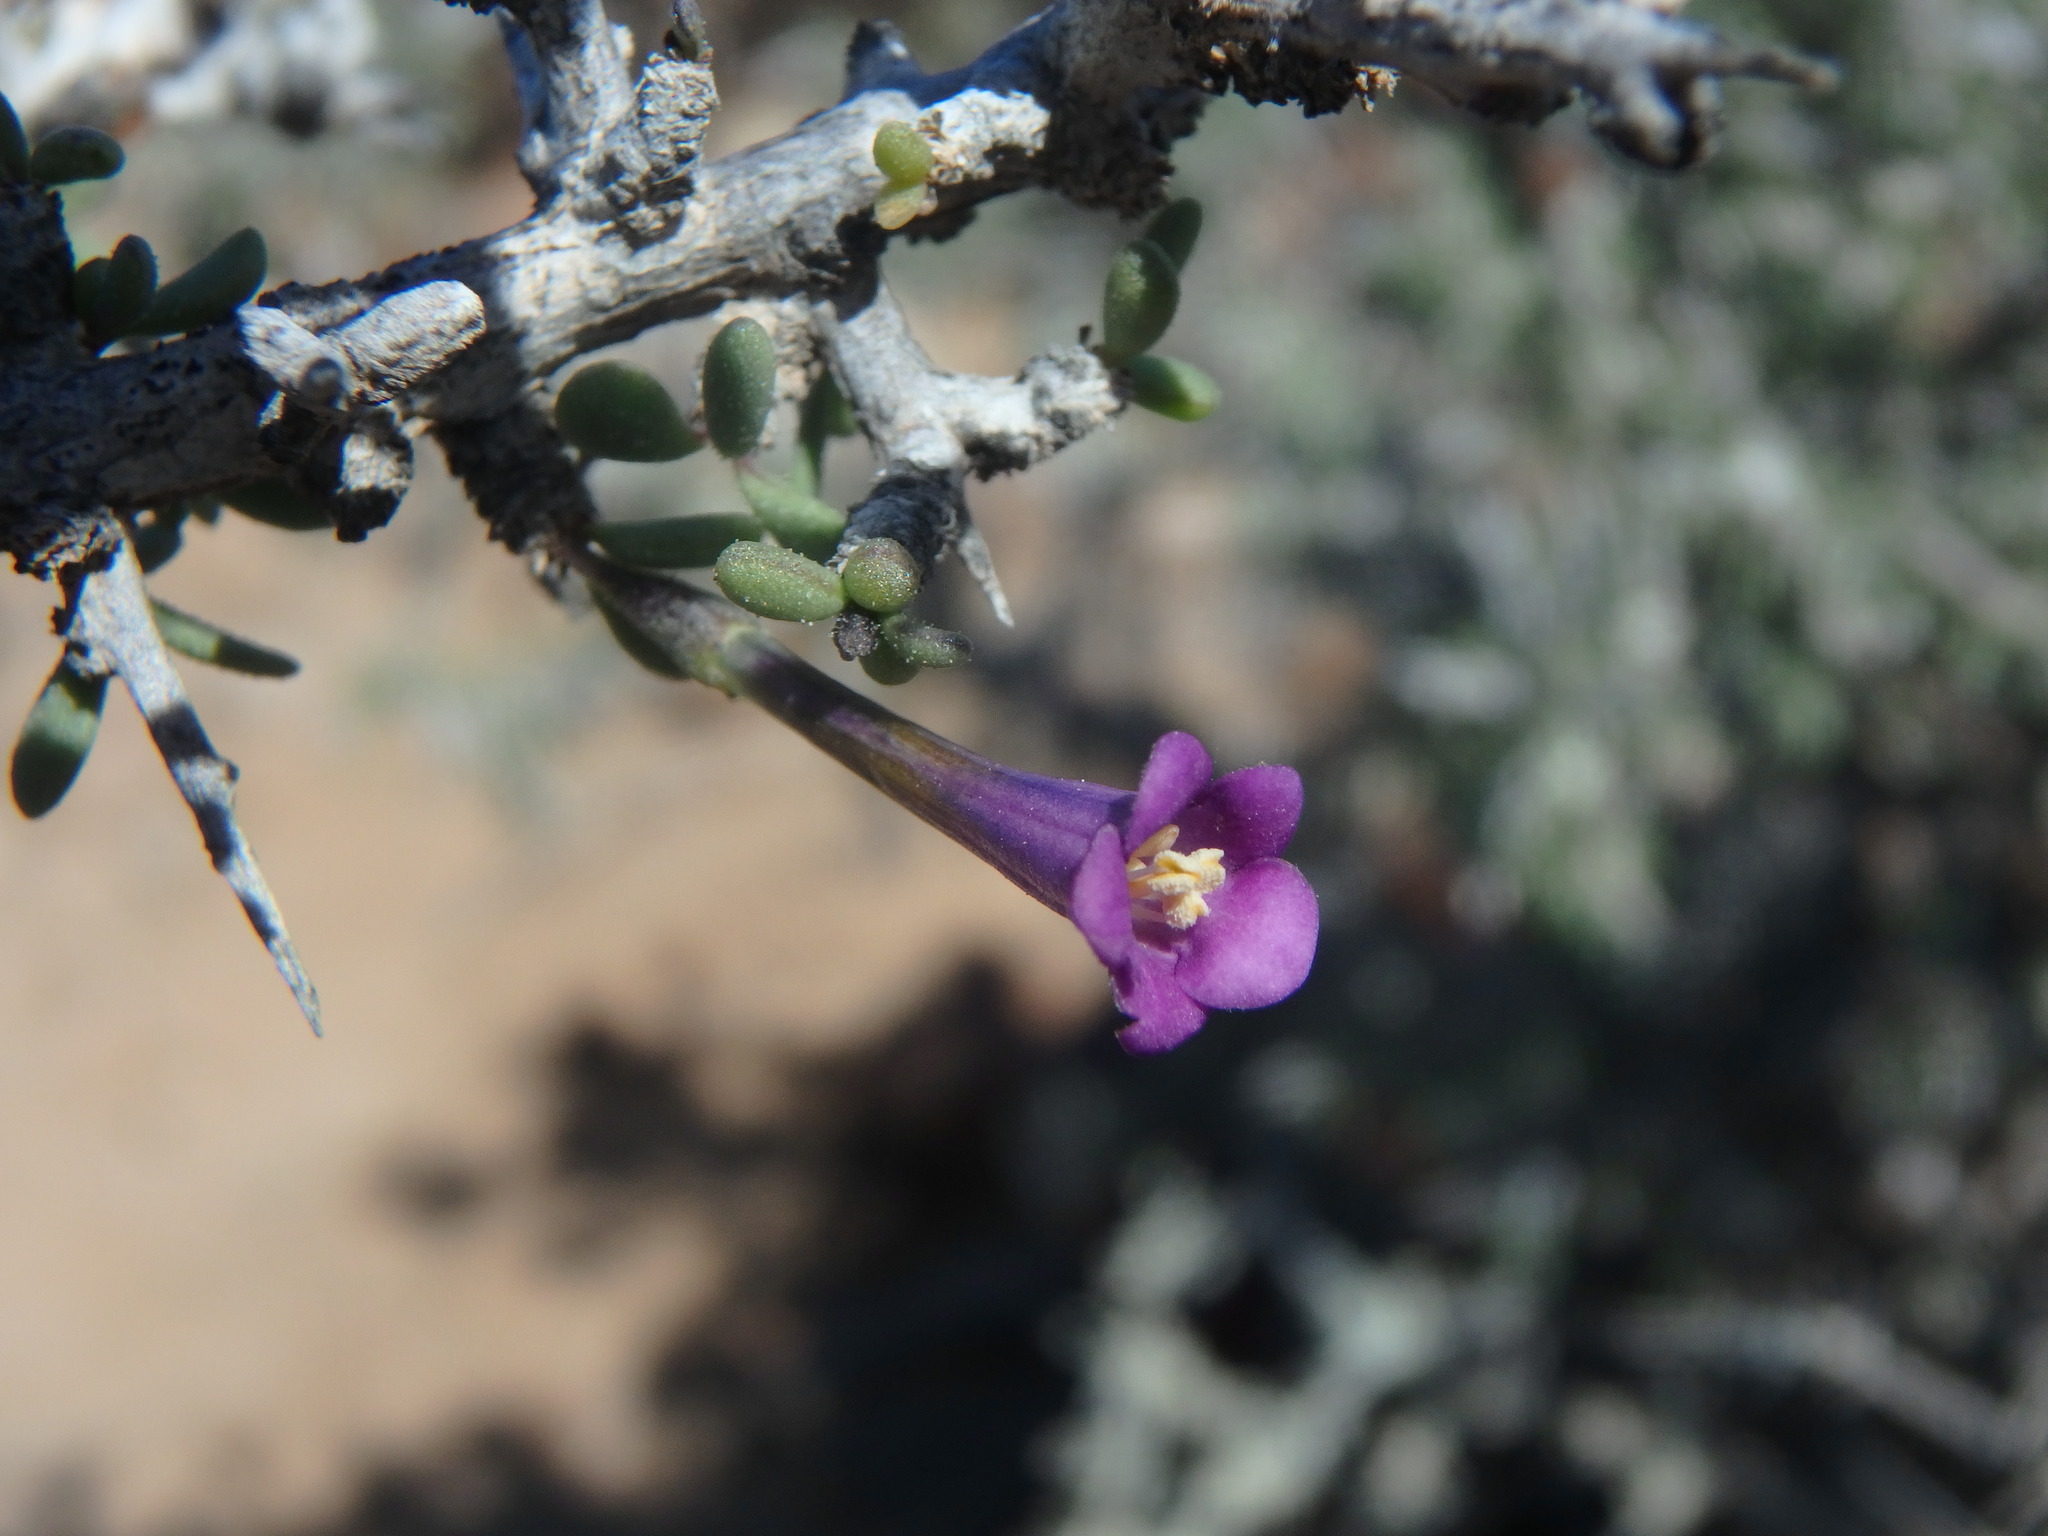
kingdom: Plantae
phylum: Tracheophyta
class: Magnoliopsida
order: Solanales
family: Solanaceae
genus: Lycium
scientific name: Lycium intricatum
